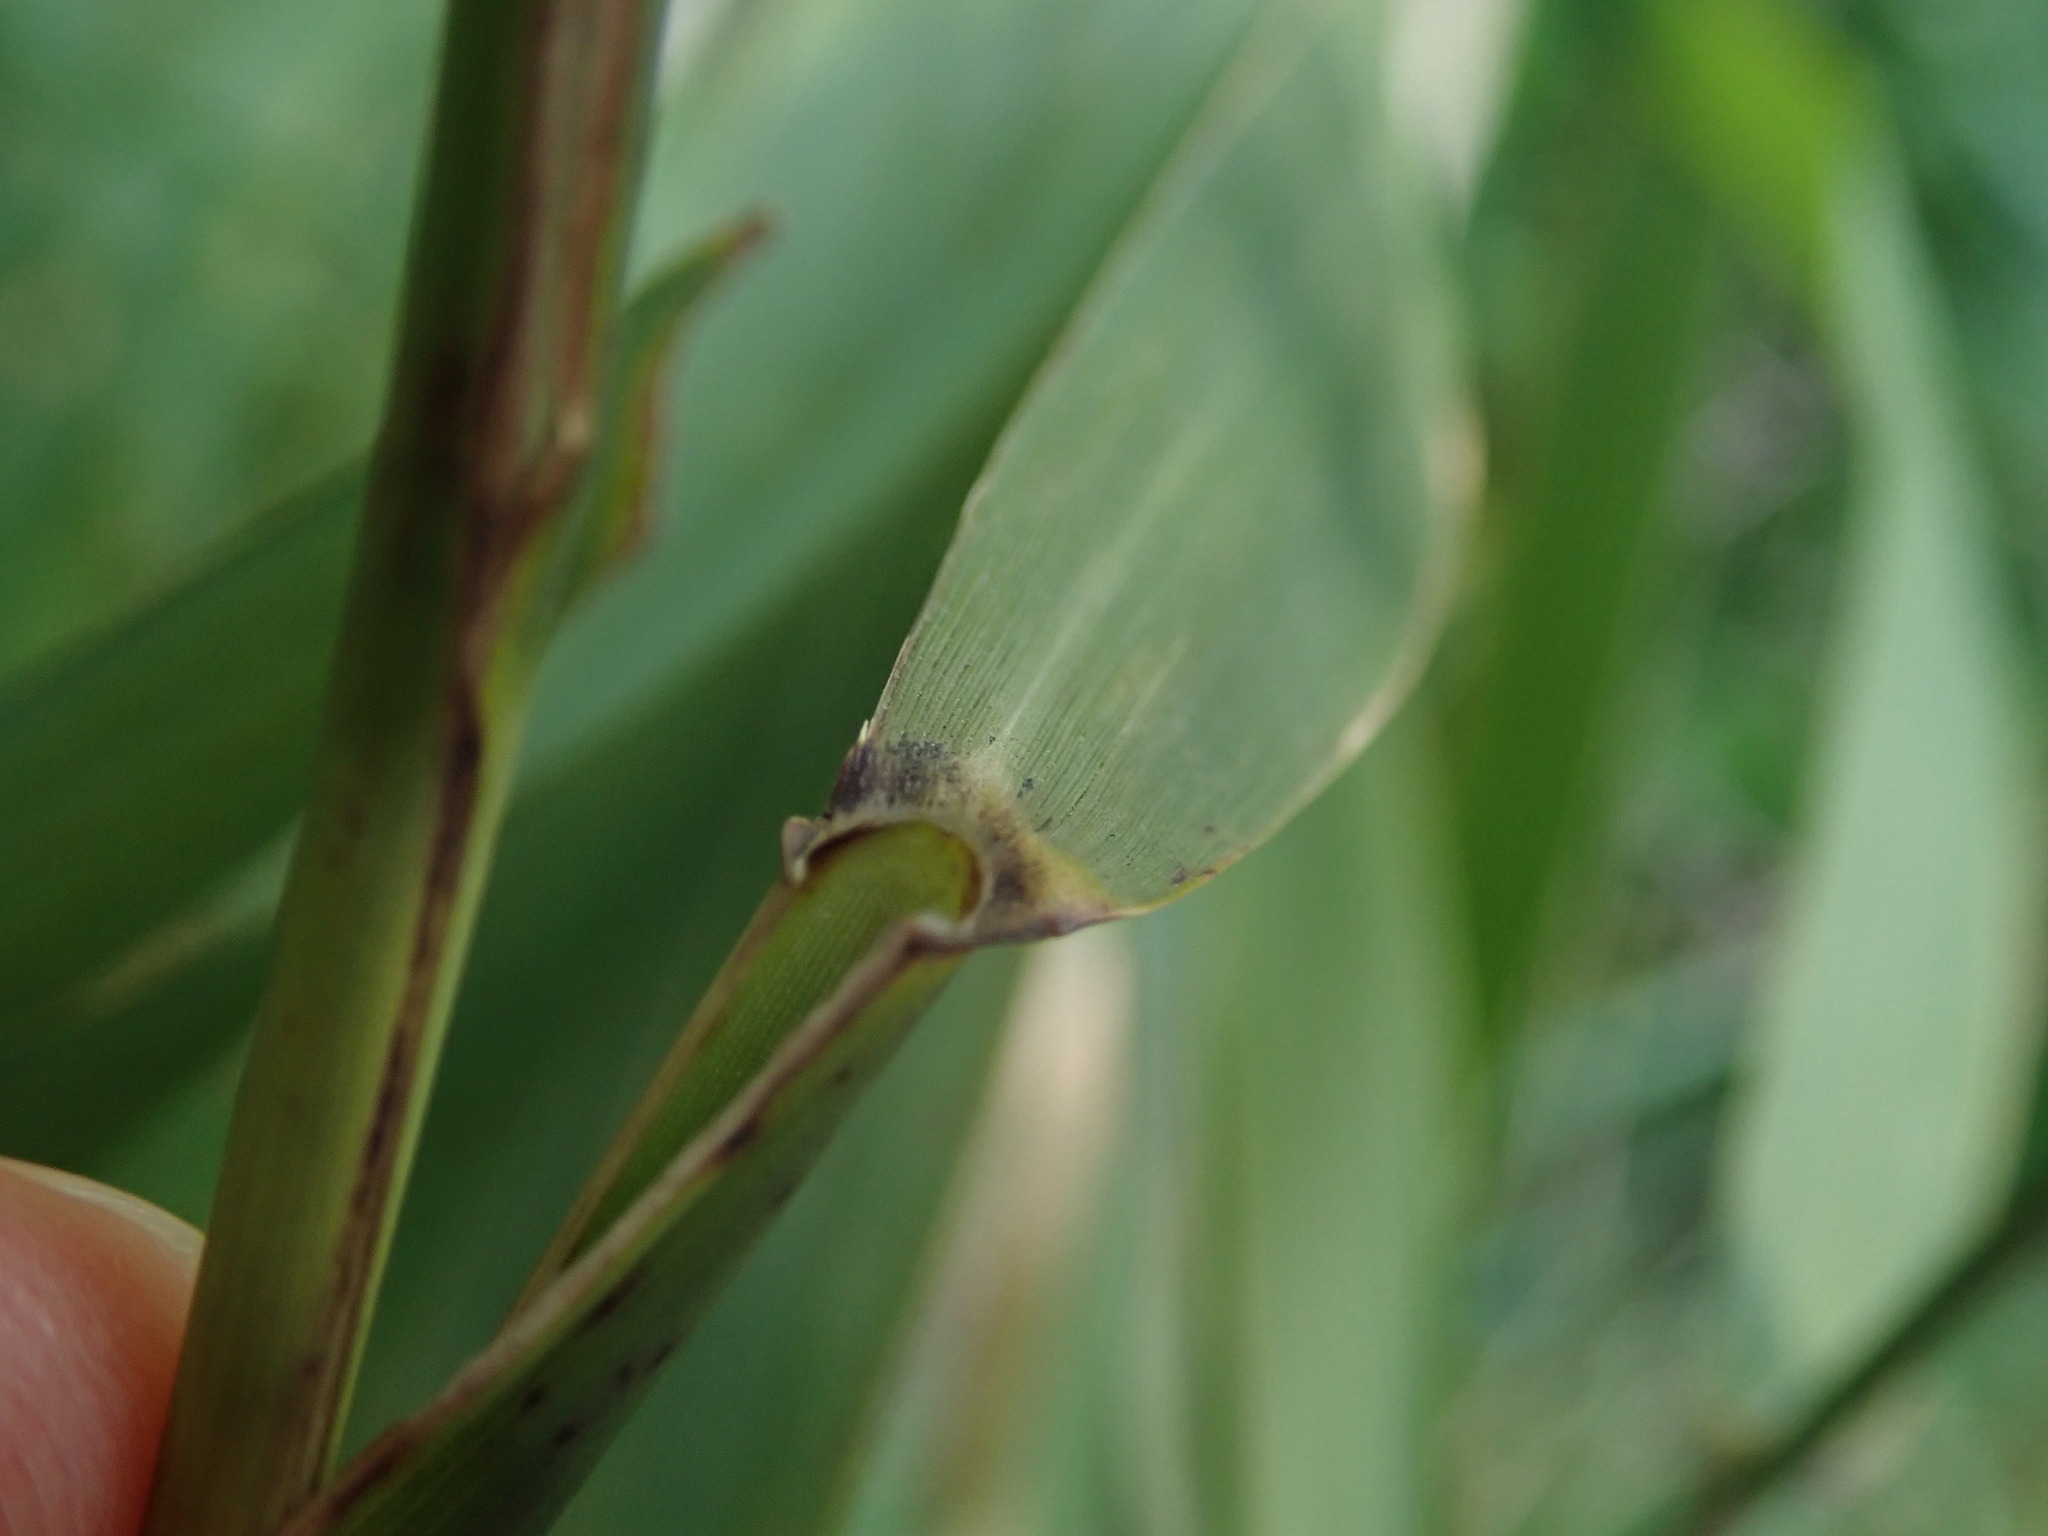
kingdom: Plantae
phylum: Tracheophyta
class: Liliopsida
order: Poales
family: Poaceae
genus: Phragmites
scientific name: Phragmites australis
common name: Common reed
